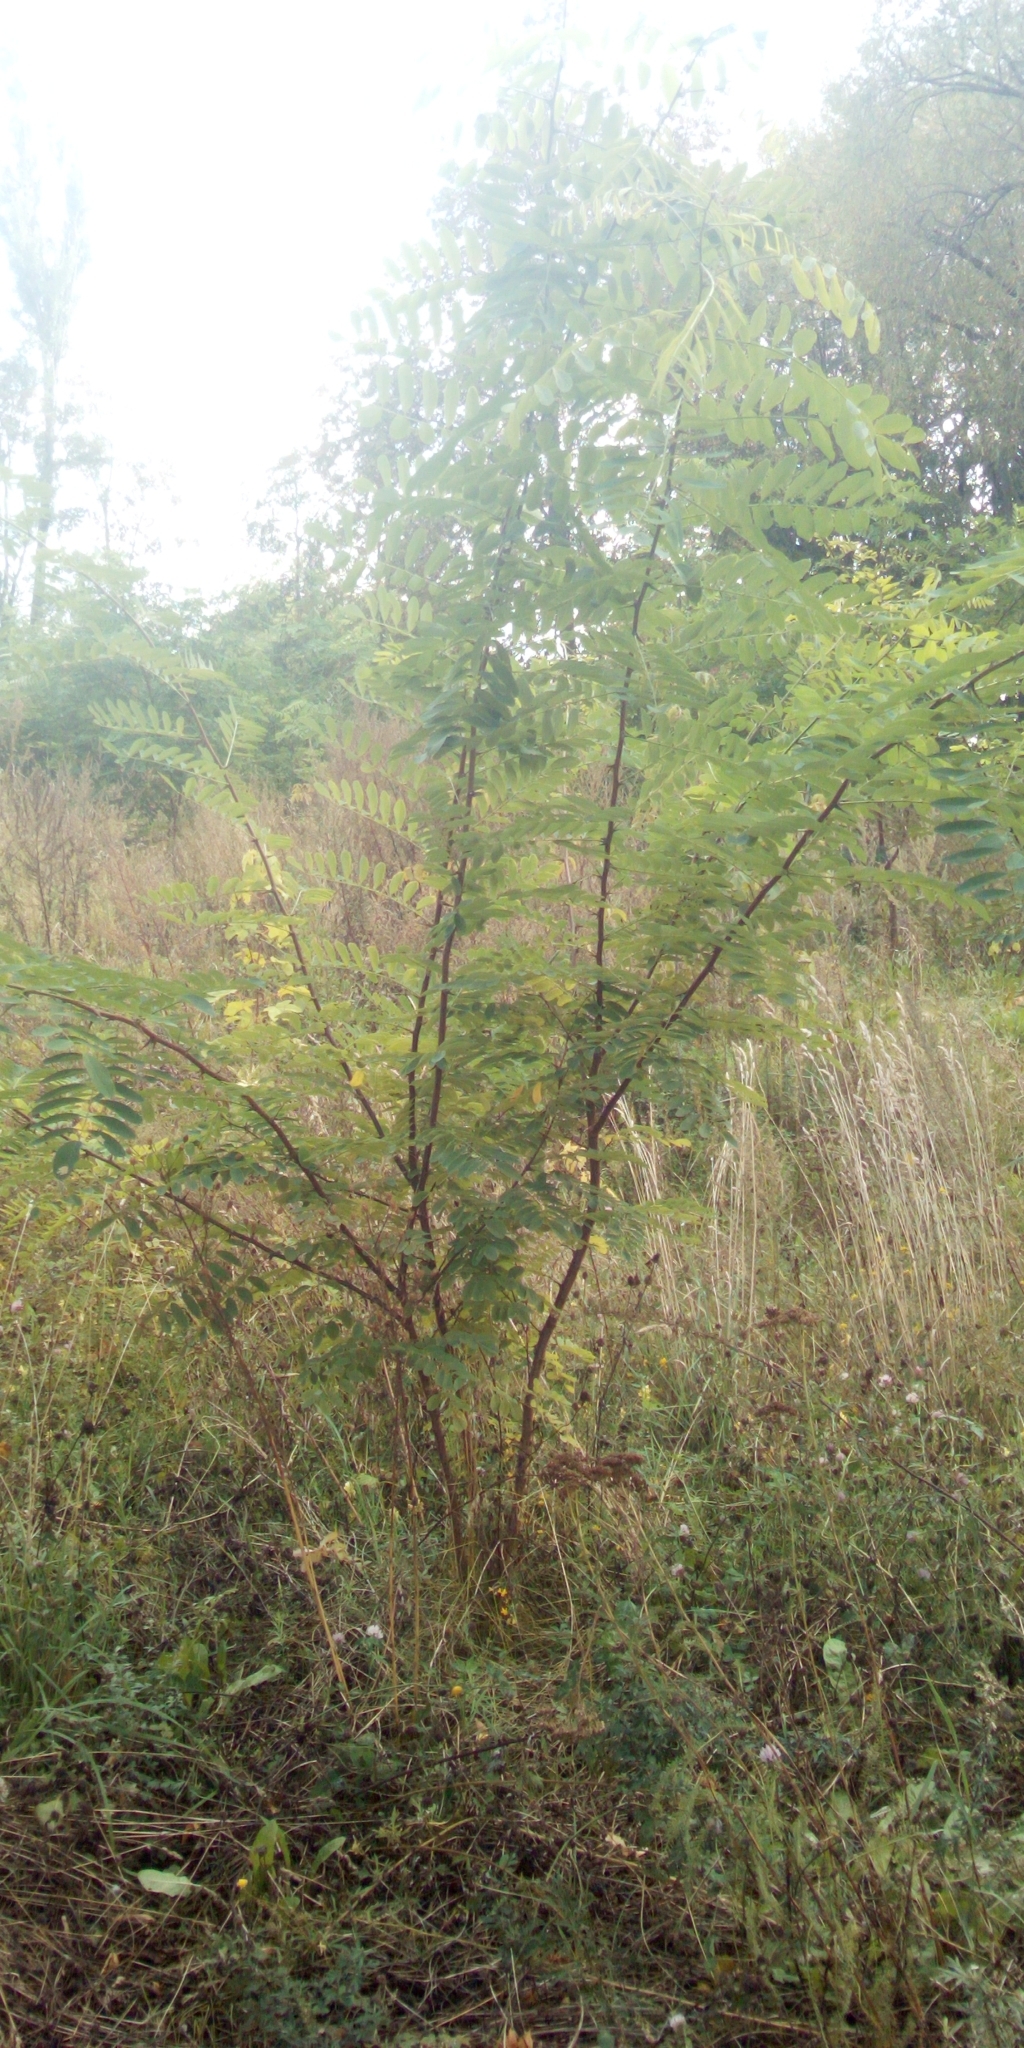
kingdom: Plantae
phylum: Tracheophyta
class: Magnoliopsida
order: Fabales
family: Fabaceae
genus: Robinia
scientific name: Robinia pseudoacacia
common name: Black locust
